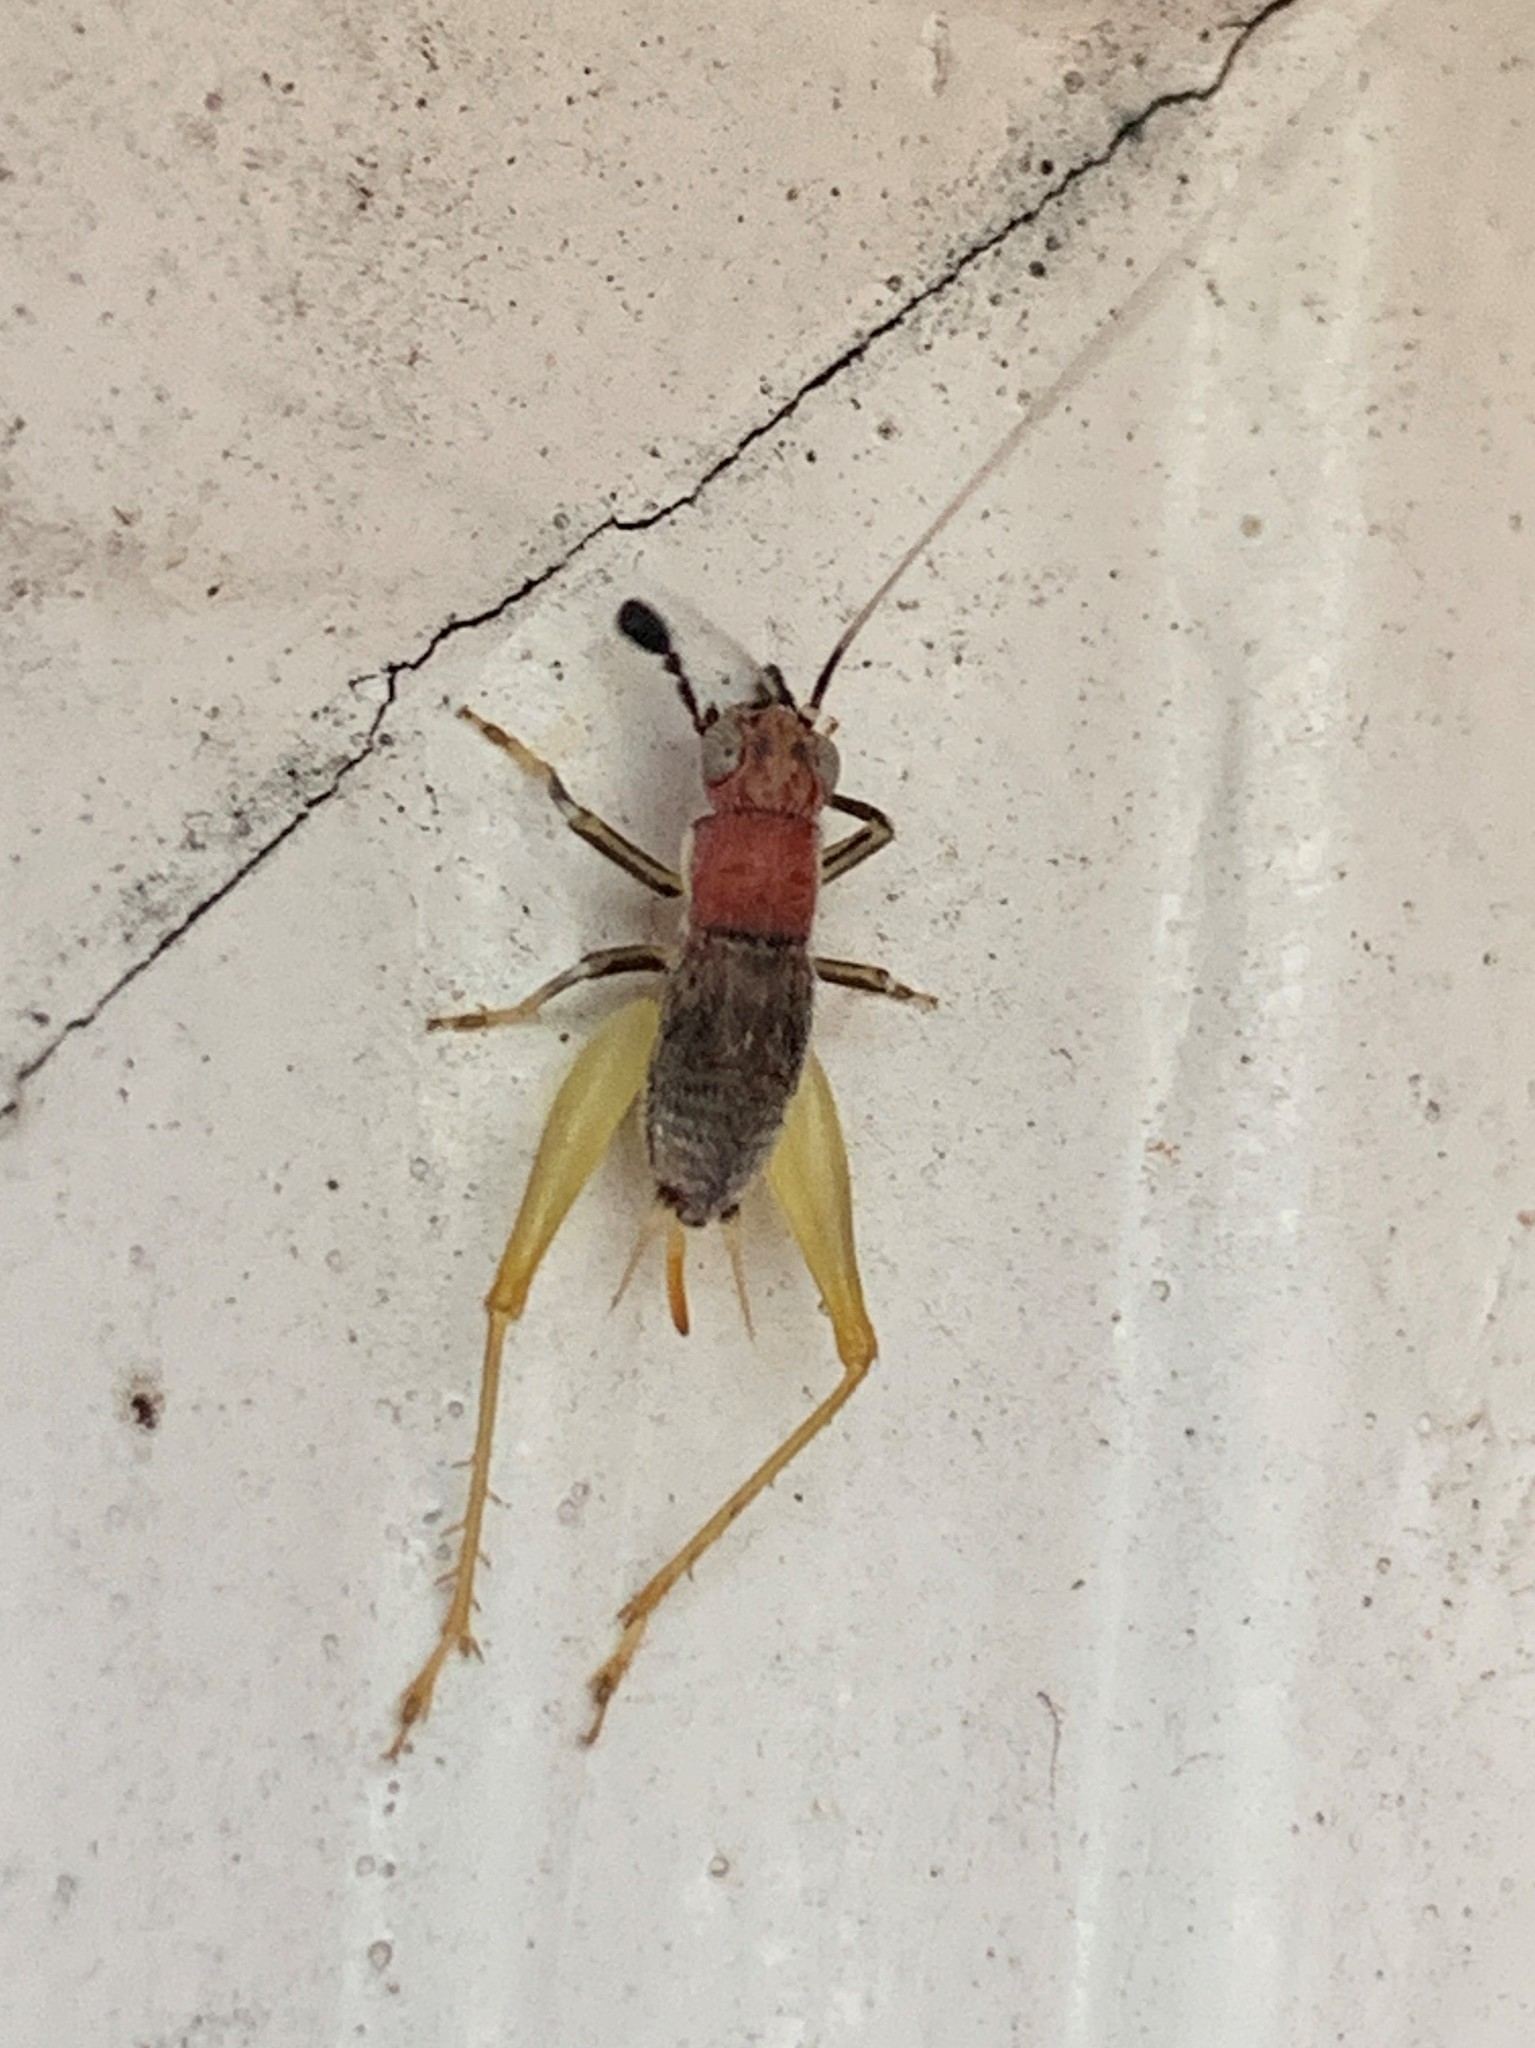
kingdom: Animalia
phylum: Arthropoda
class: Insecta
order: Orthoptera
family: Trigonidiidae
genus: Phyllopalpus
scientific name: Phyllopalpus pulchellus
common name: Handsome trig
